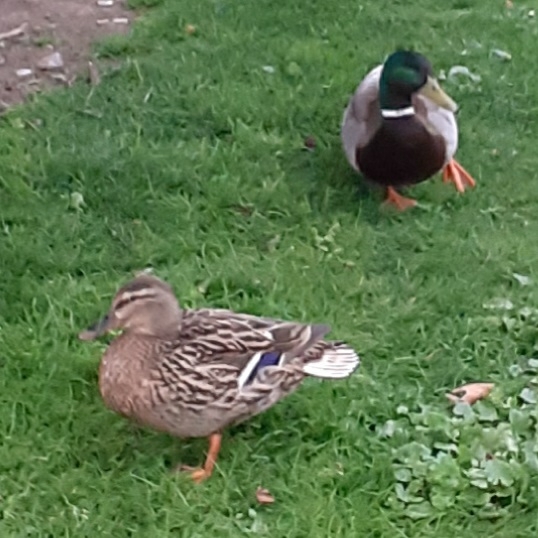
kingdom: Animalia
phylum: Chordata
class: Aves
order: Anseriformes
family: Anatidae
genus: Anas
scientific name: Anas platyrhynchos
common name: Mallard
